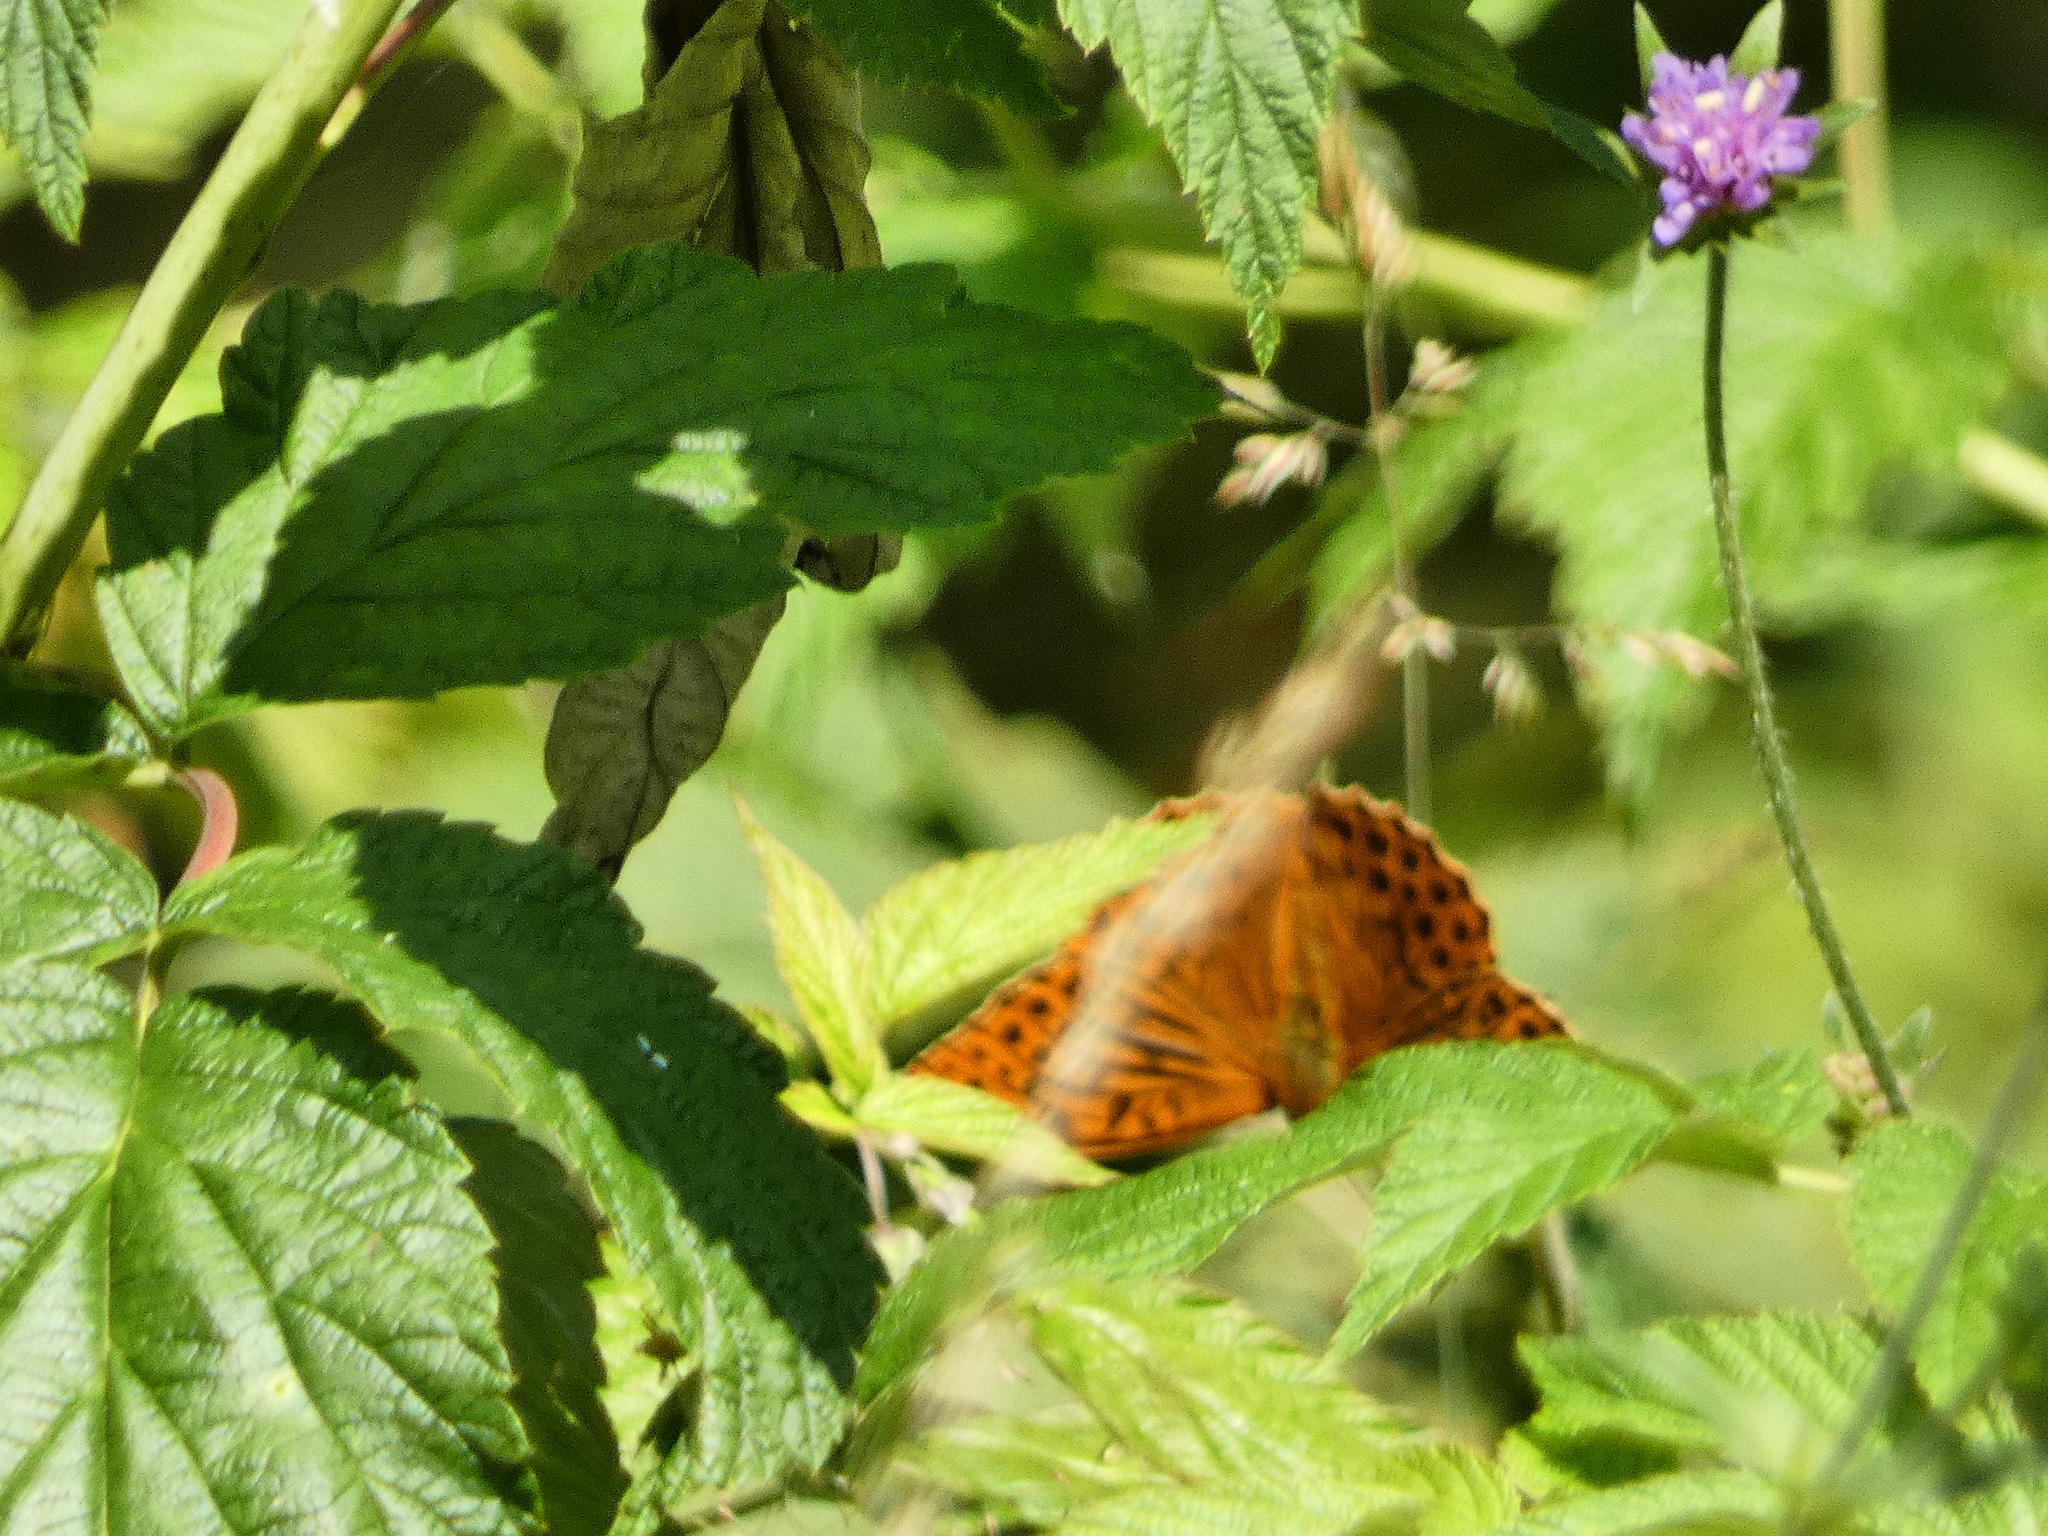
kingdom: Animalia
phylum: Arthropoda
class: Insecta
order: Lepidoptera
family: Nymphalidae
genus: Argynnis
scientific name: Argynnis paphia
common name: Silver-washed fritillary
